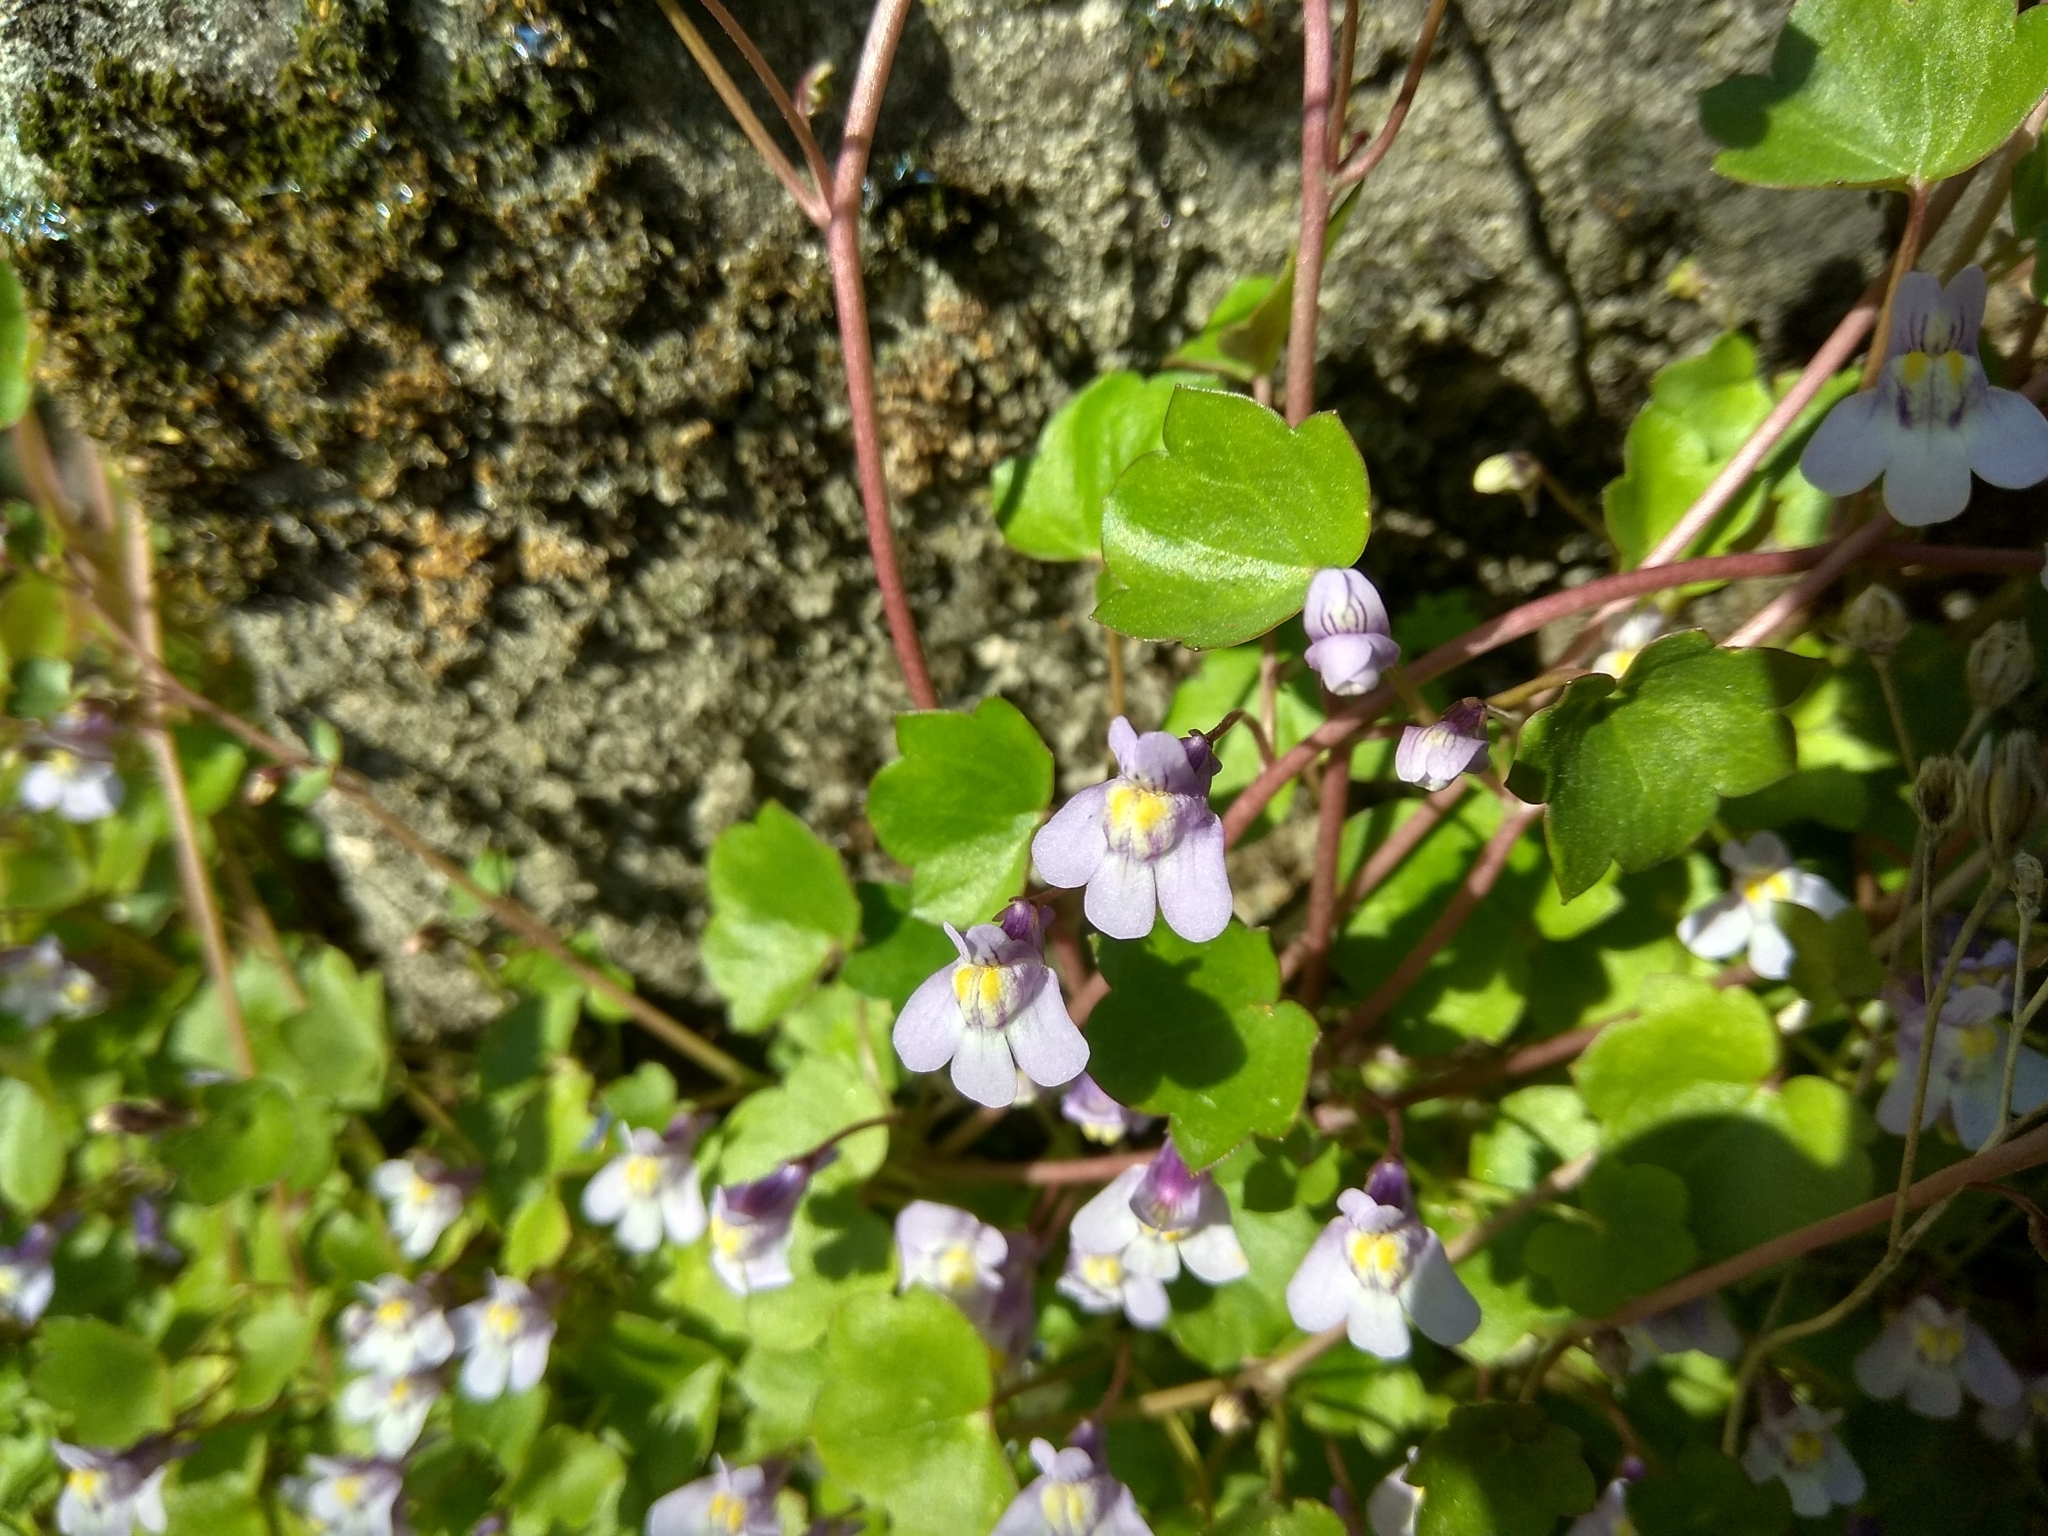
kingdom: Plantae
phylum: Tracheophyta
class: Magnoliopsida
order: Lamiales
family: Plantaginaceae
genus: Cymbalaria
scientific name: Cymbalaria muralis
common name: Ivy-leaved toadflax
